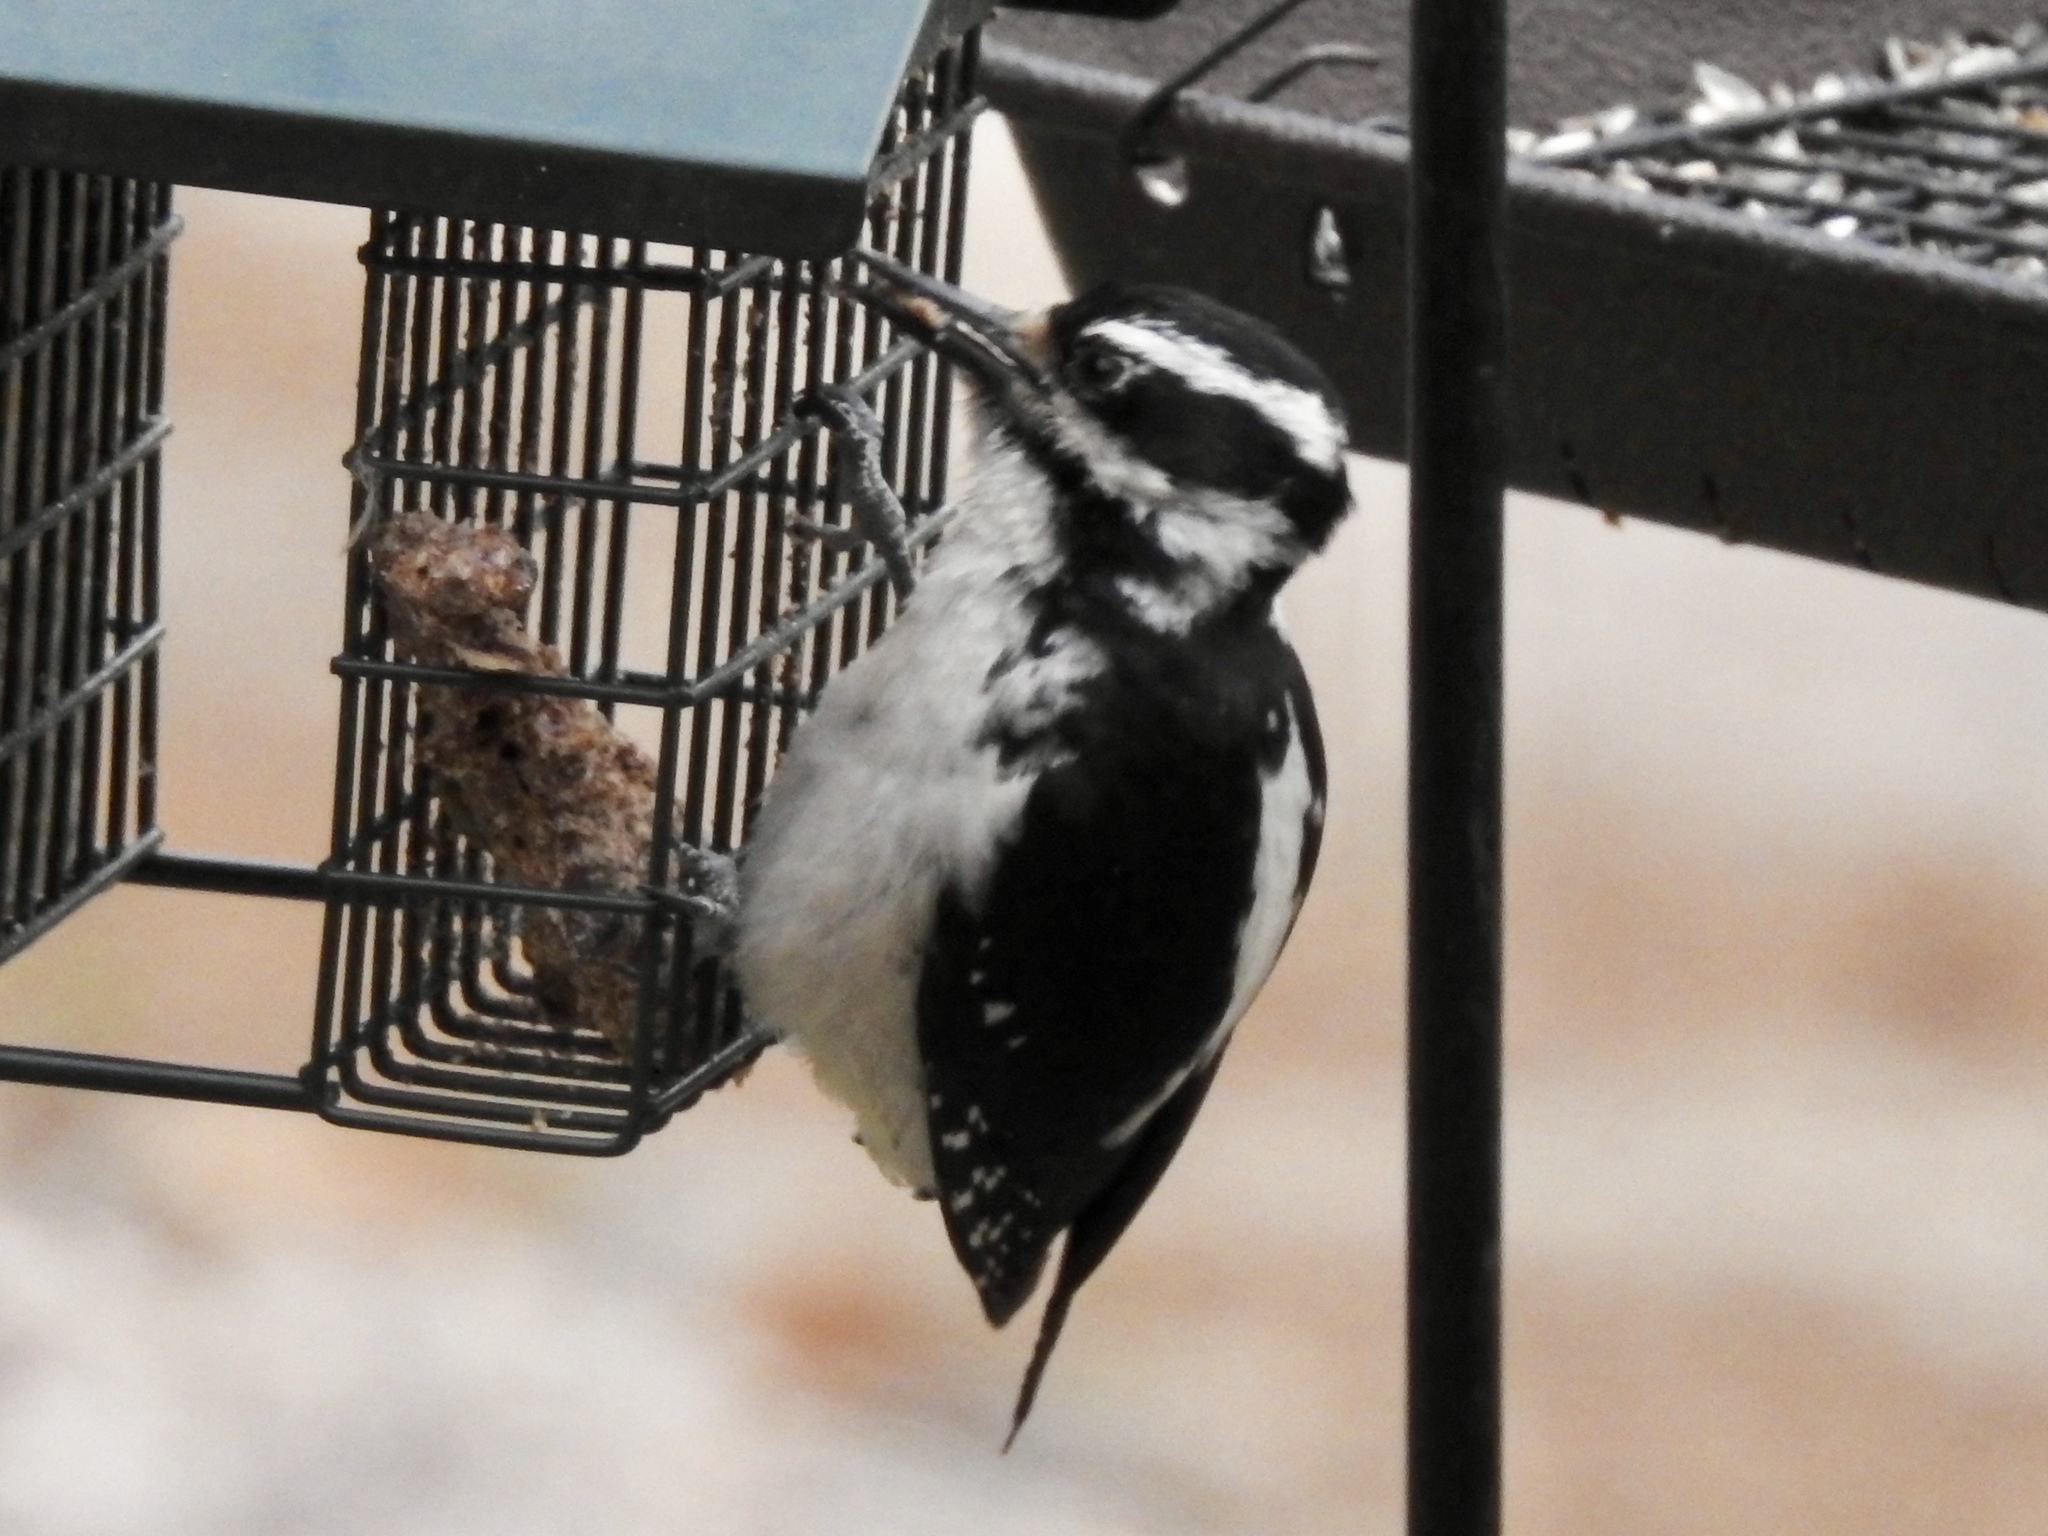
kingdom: Animalia
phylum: Chordata
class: Aves
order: Piciformes
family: Picidae
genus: Leuconotopicus
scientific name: Leuconotopicus villosus
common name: Hairy woodpecker
